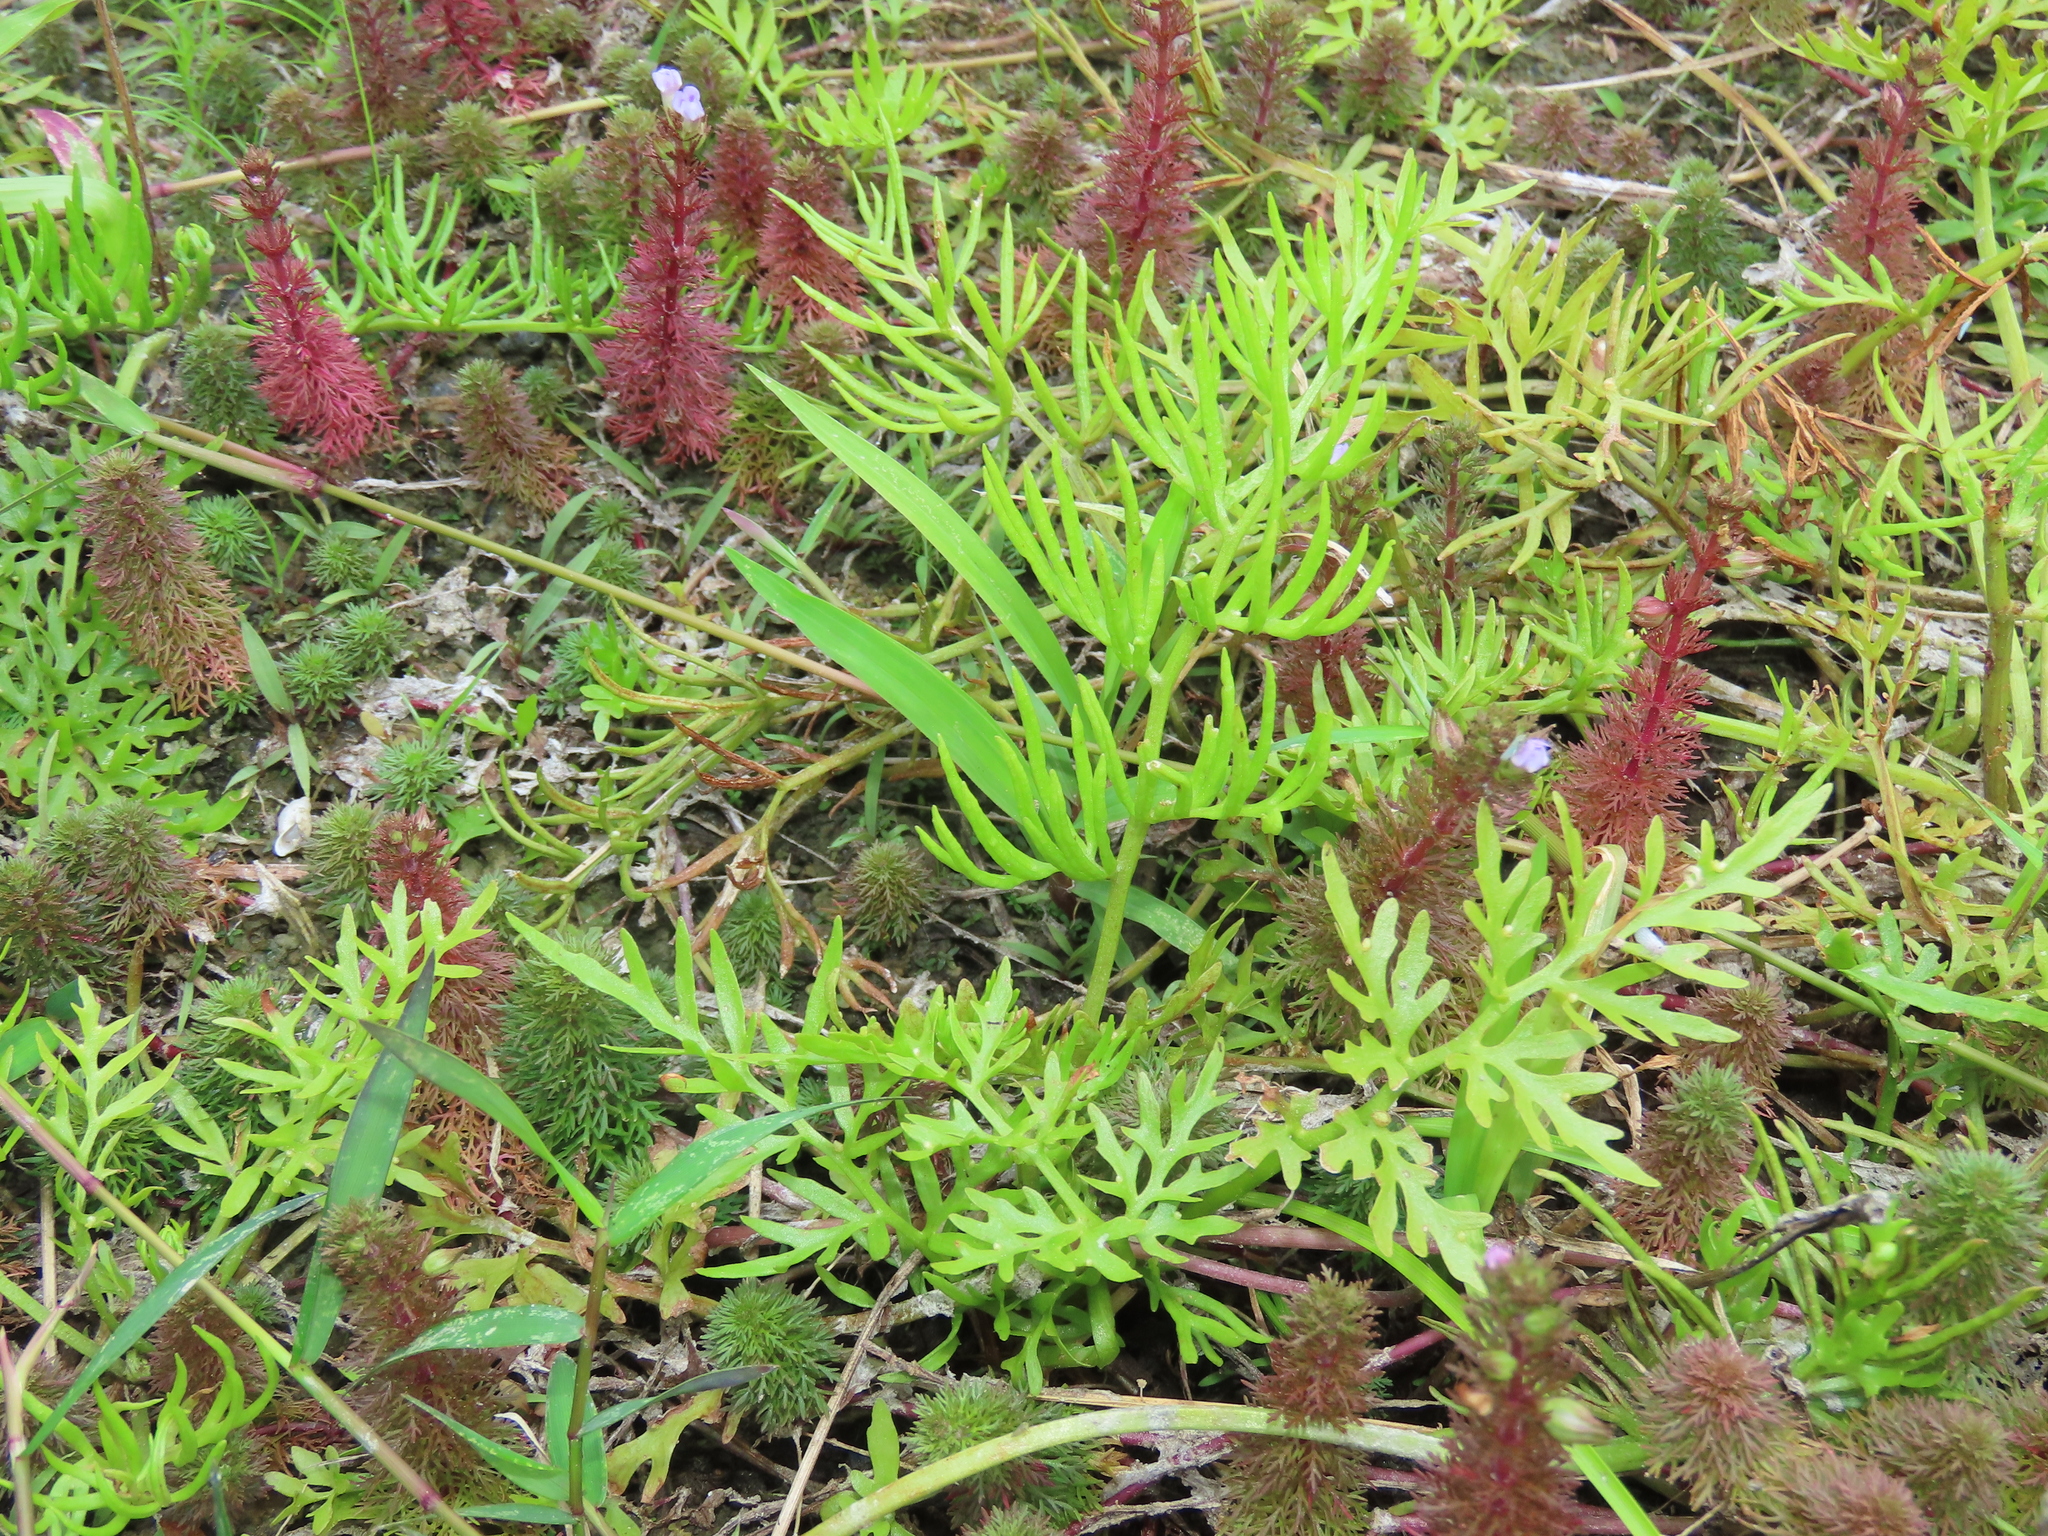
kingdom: Plantae
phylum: Tracheophyta
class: Polypodiopsida
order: Polypodiales
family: Pteridaceae
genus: Ceratopteris
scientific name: Ceratopteris thalictroides
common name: Water fern
